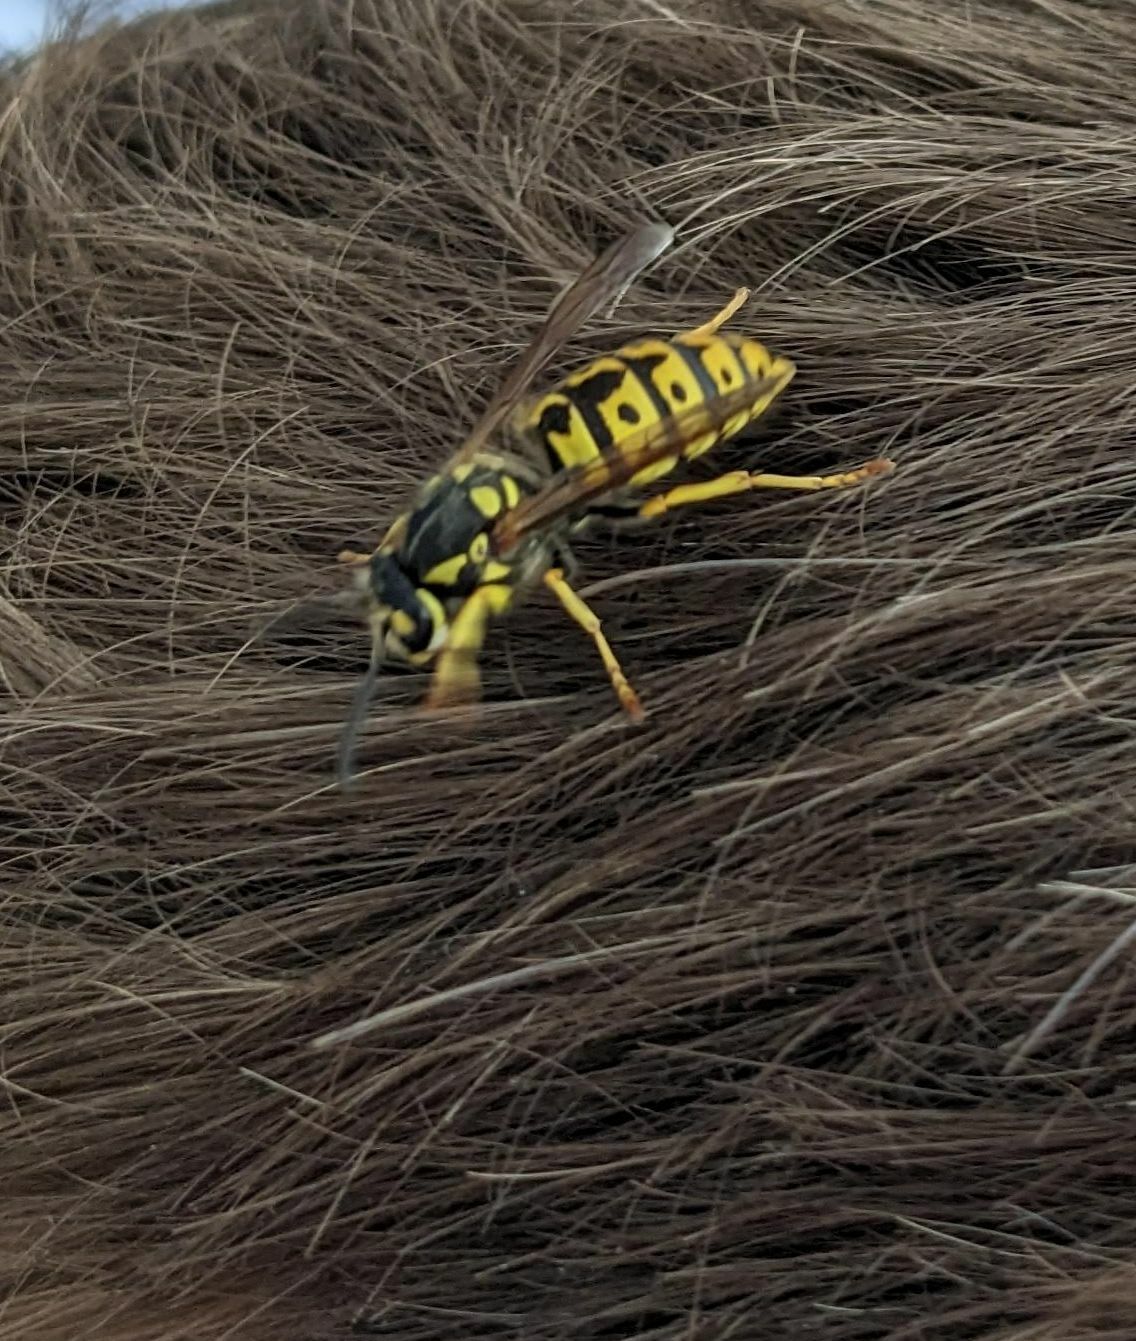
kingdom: Animalia
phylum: Arthropoda
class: Insecta
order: Hymenoptera
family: Vespidae
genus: Vespula
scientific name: Vespula germanica
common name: German wasp
